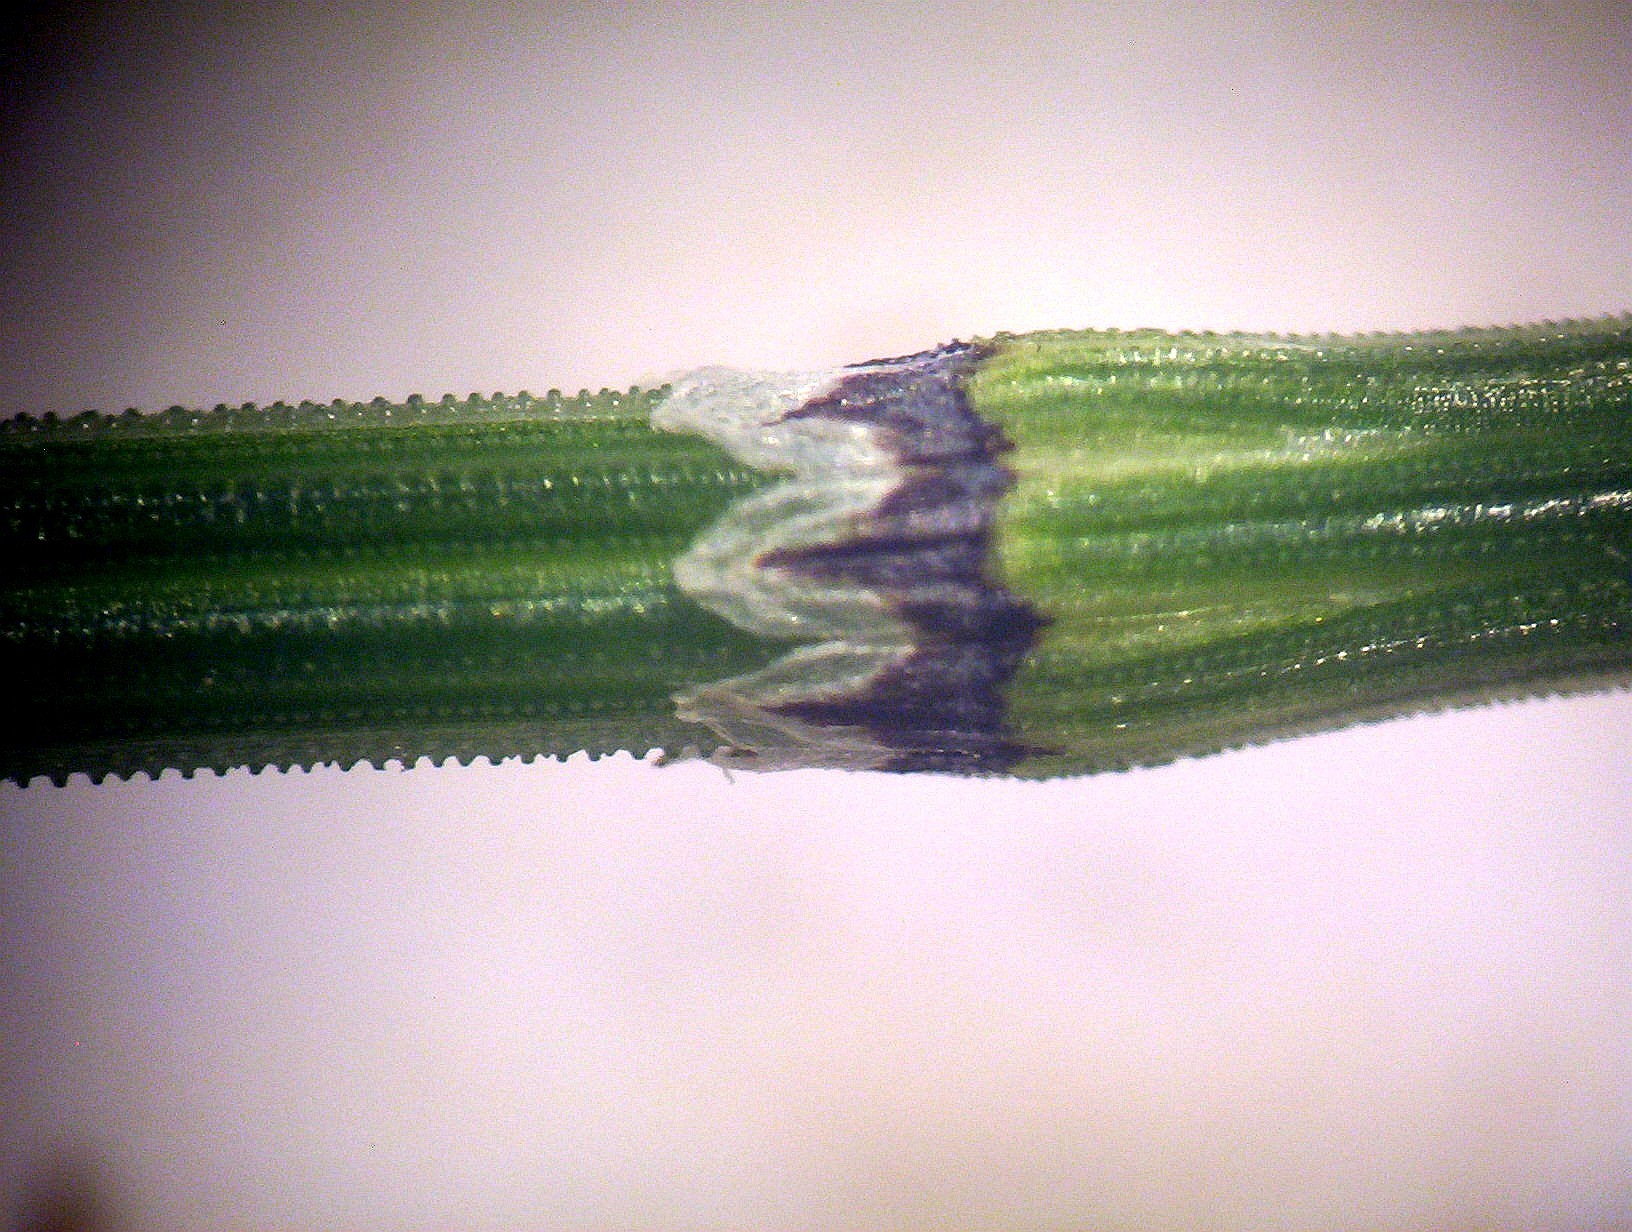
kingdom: Plantae
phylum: Tracheophyta
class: Polypodiopsida
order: Equisetales
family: Equisetaceae
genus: Equisetum
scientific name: Equisetum variegatum
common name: Variegated horsetail
